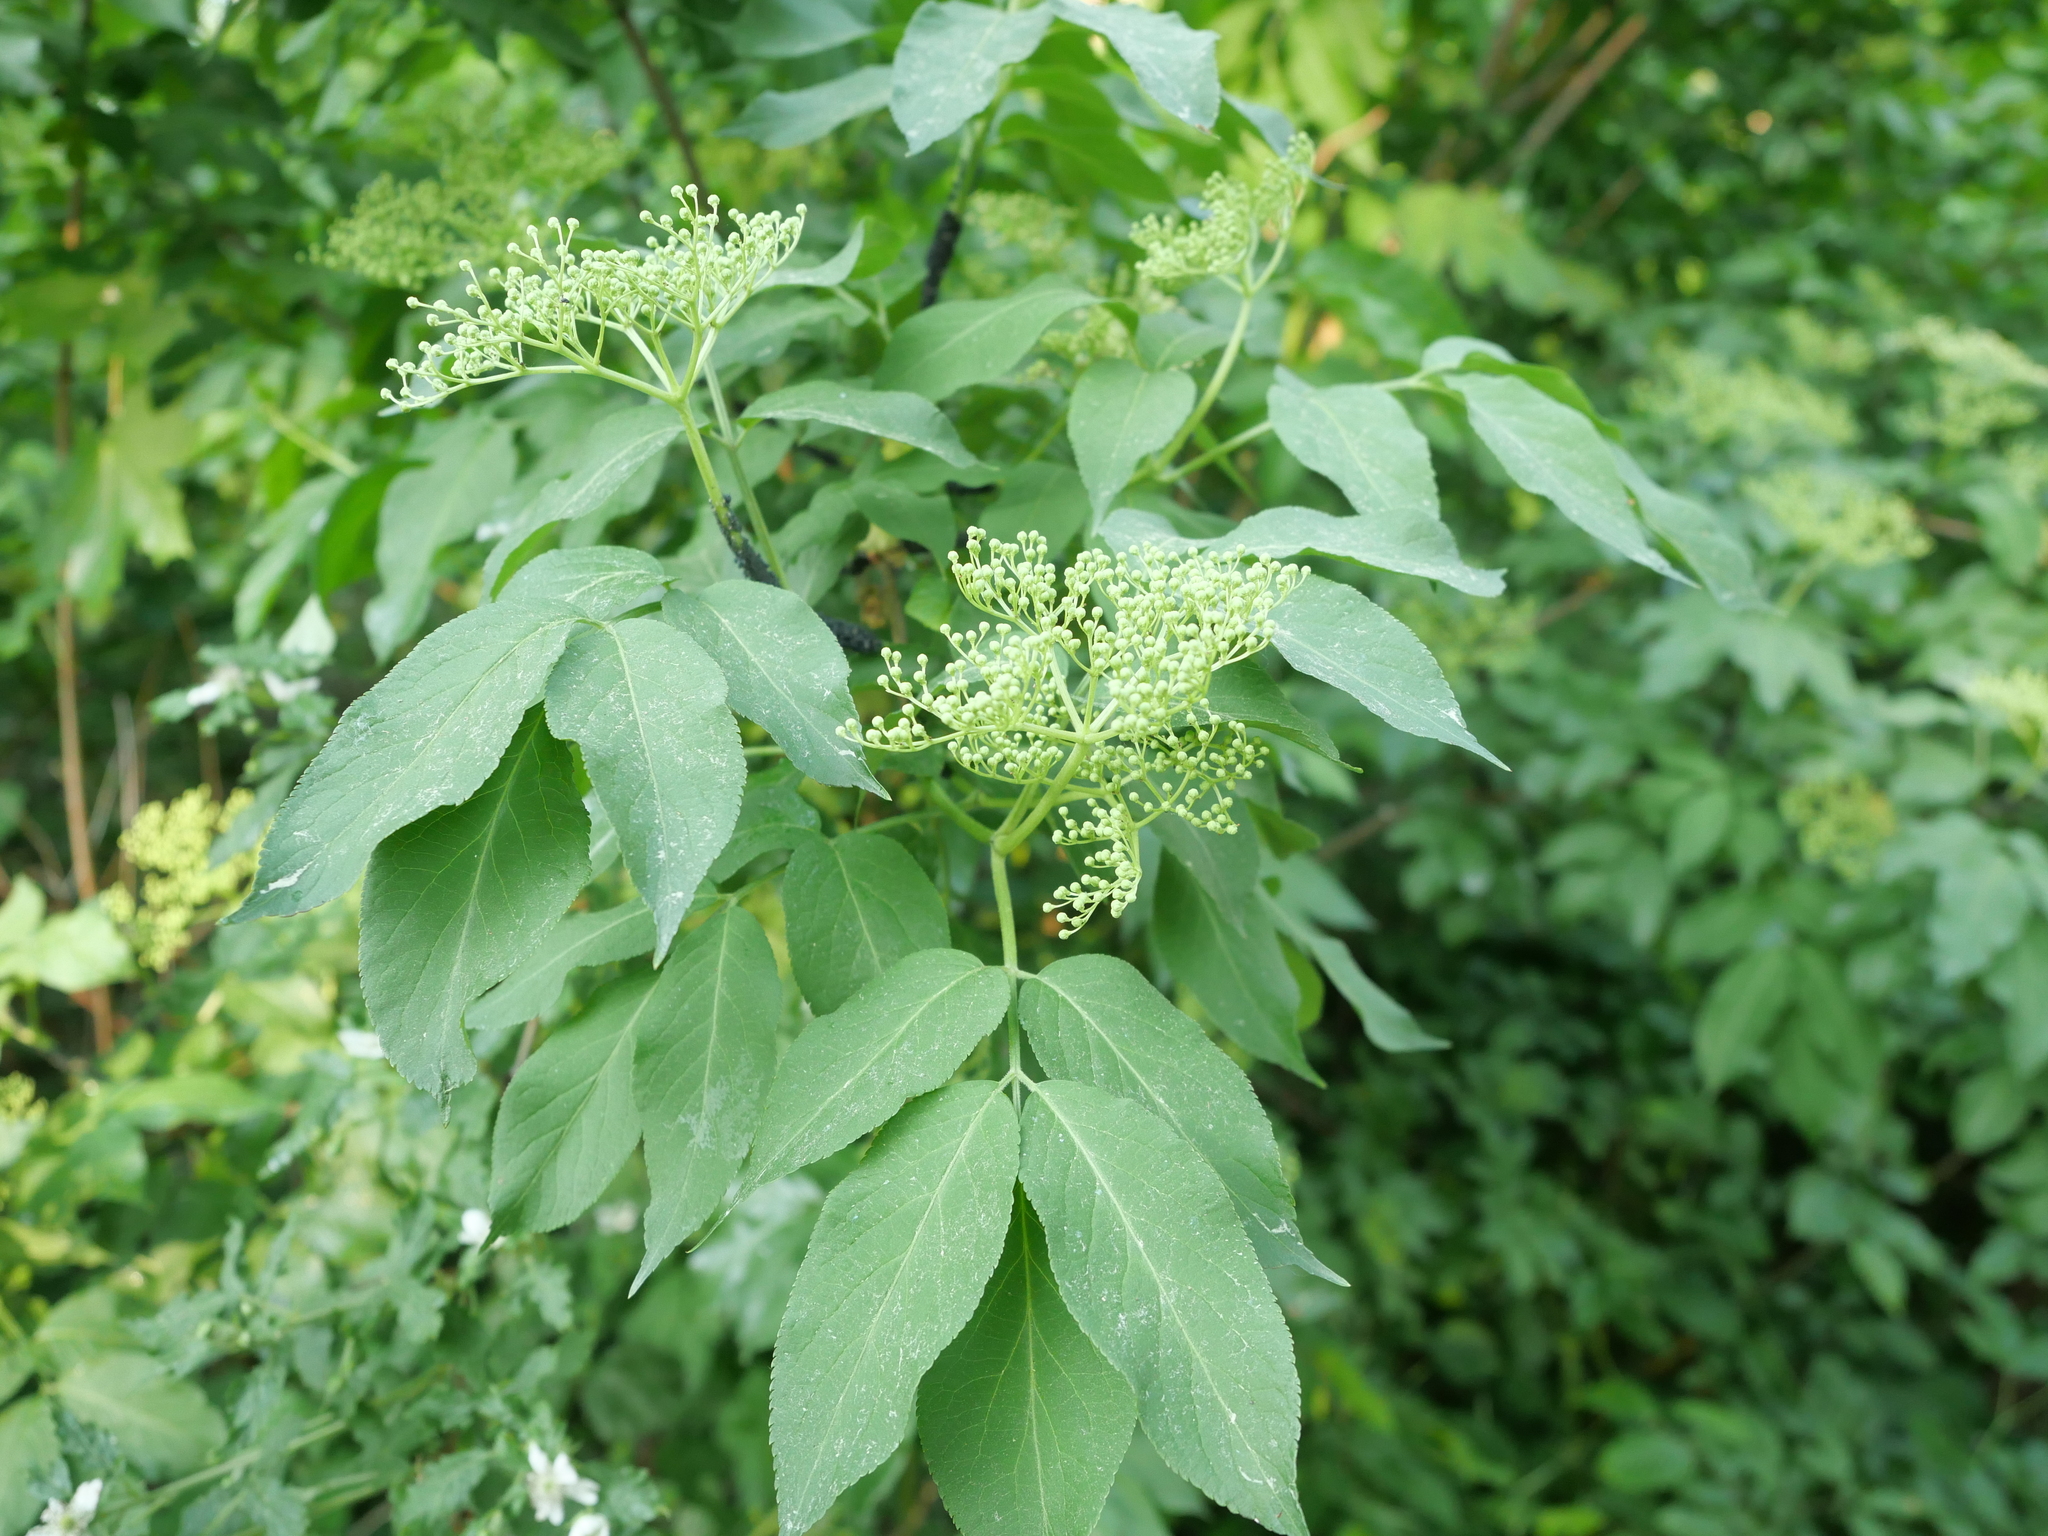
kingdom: Plantae
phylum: Tracheophyta
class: Magnoliopsida
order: Dipsacales
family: Viburnaceae
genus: Sambucus
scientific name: Sambucus nigra
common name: Elder
